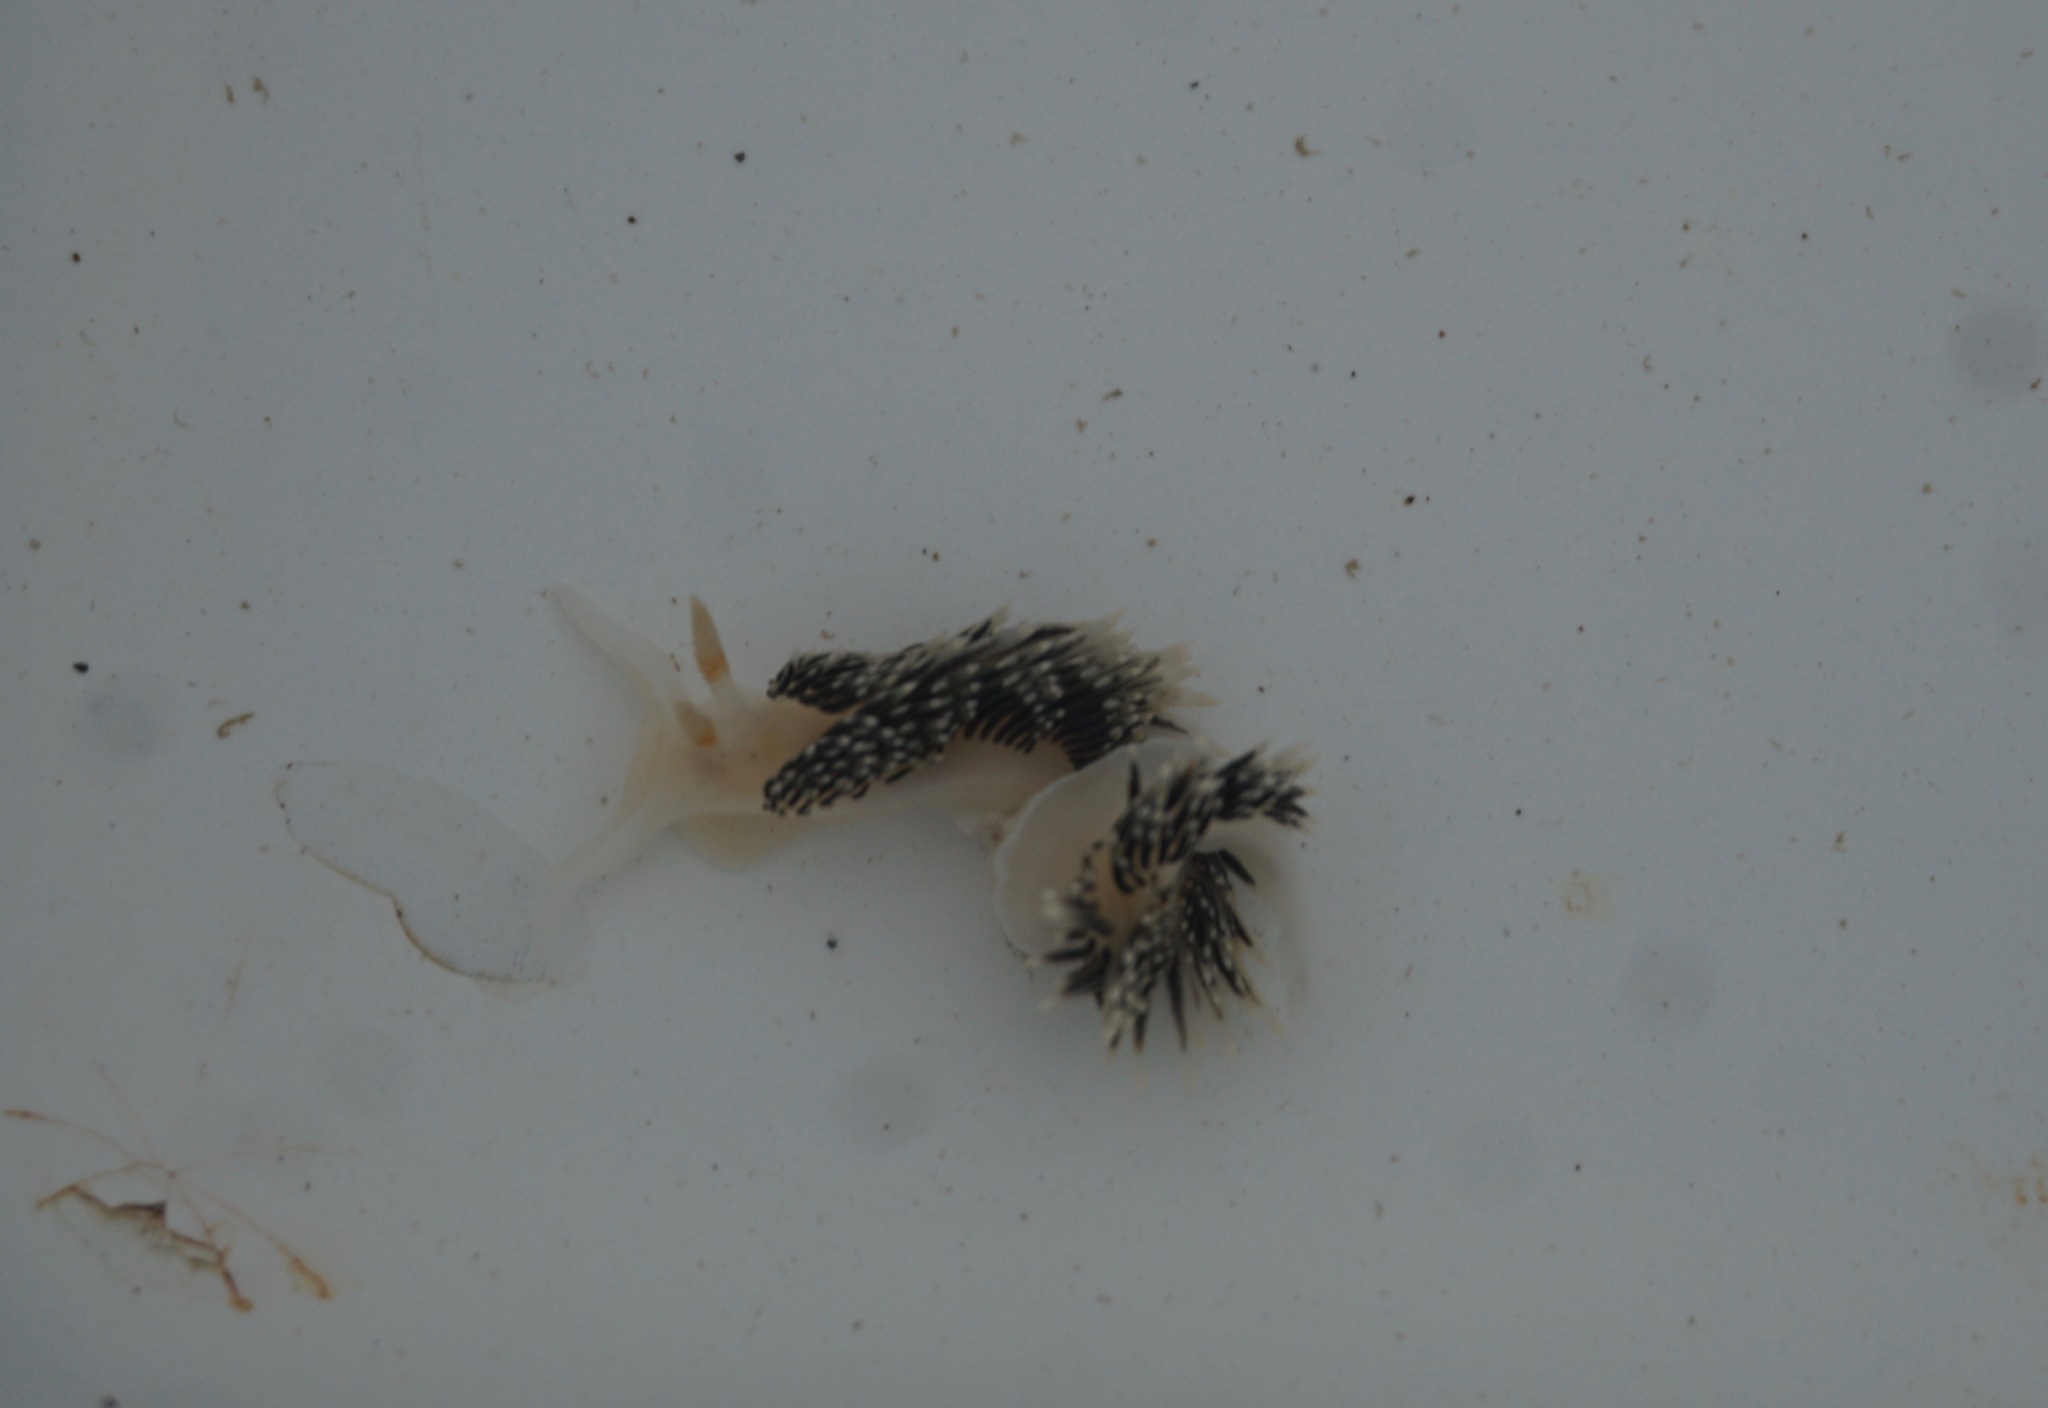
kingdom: Animalia
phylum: Mollusca
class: Gastropoda
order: Nudibranchia
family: Facelinidae
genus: Phidiana
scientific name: Phidiana hiltoni
